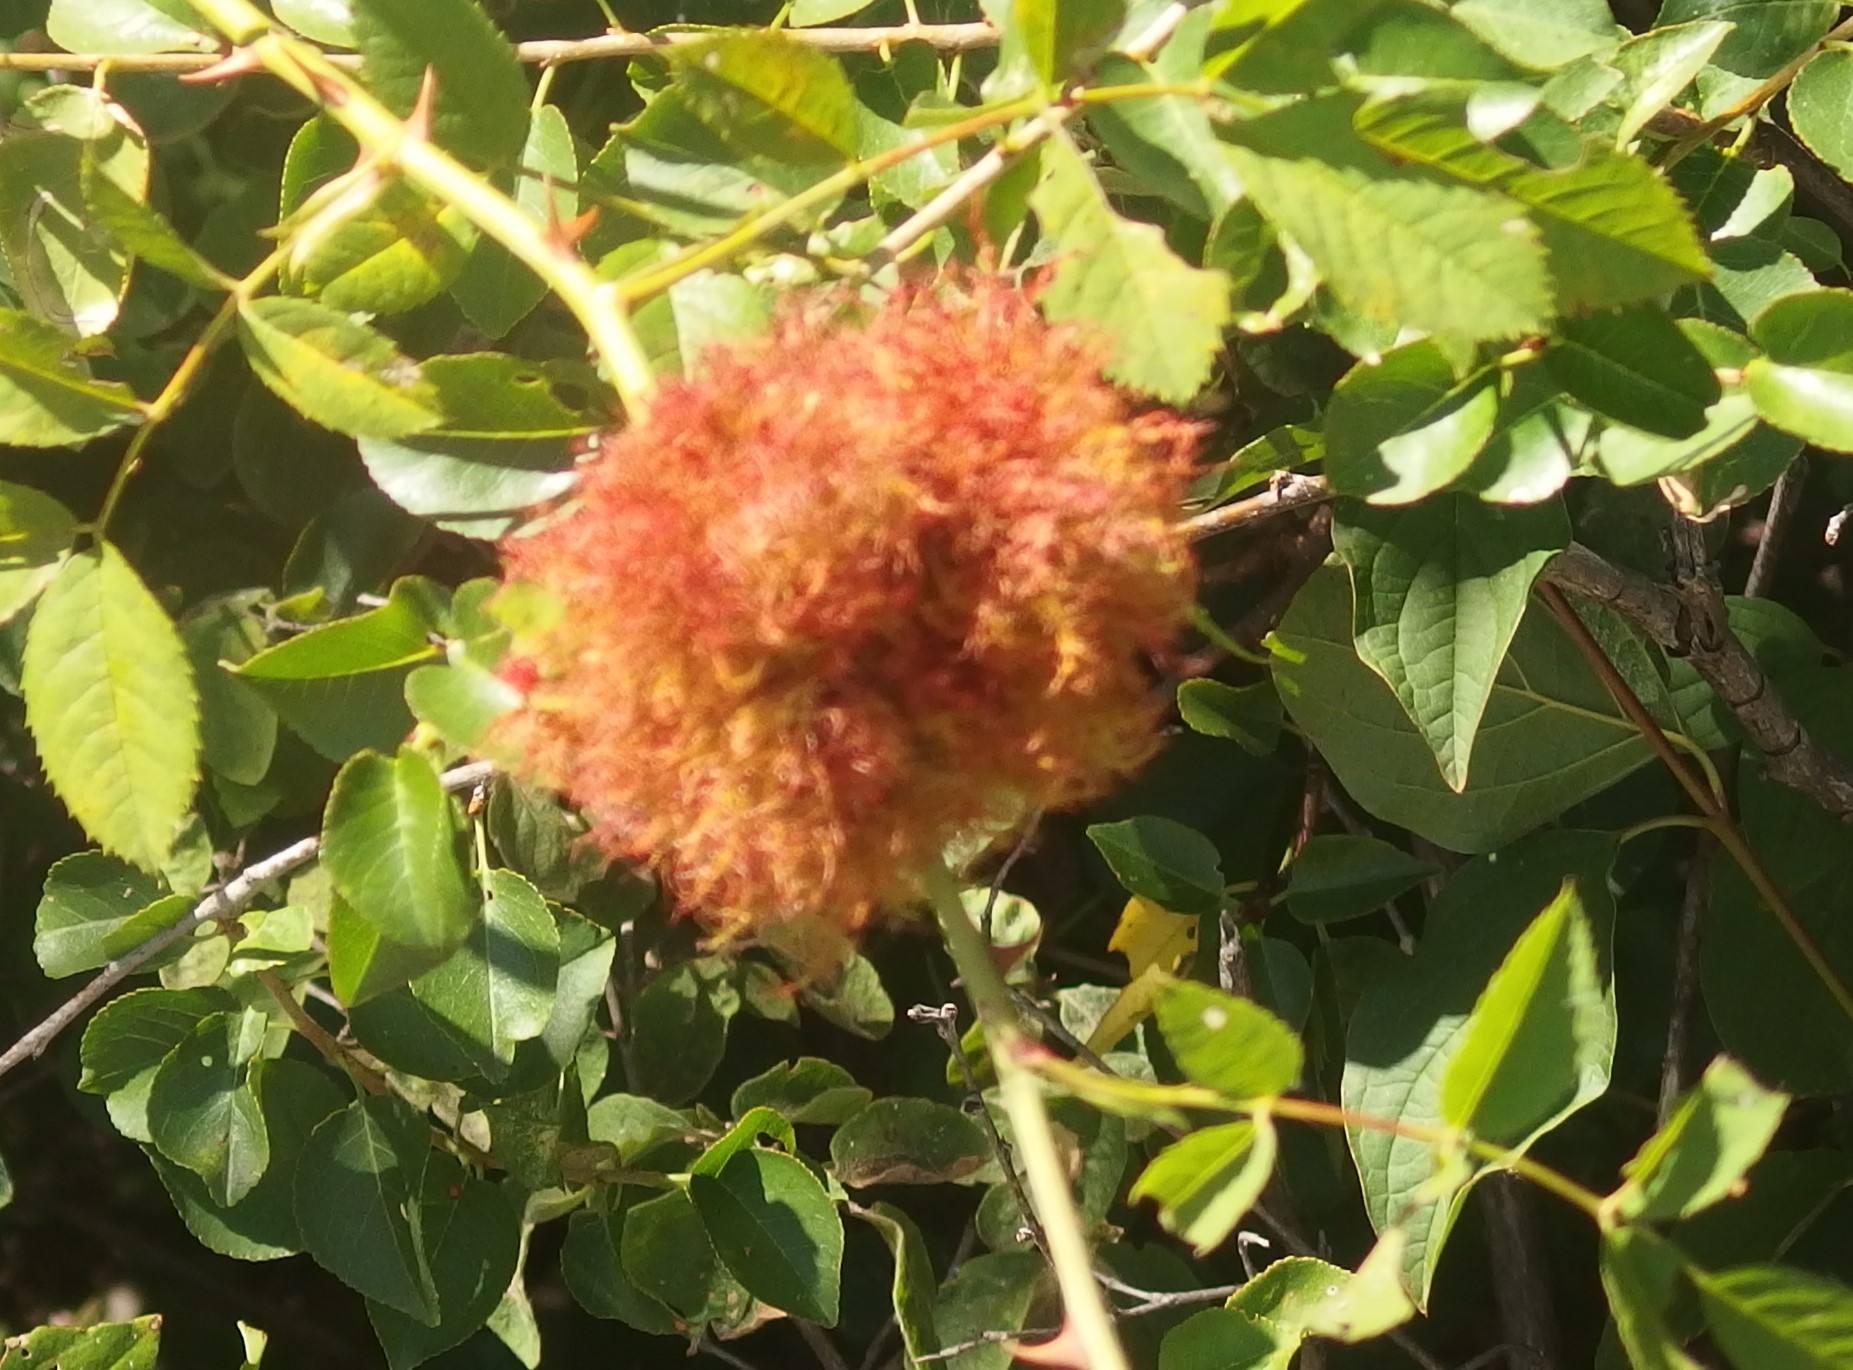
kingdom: Animalia
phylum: Arthropoda
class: Insecta
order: Hymenoptera
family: Cynipidae
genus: Diplolepis
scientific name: Diplolepis rosae
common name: Bedeguar gall
